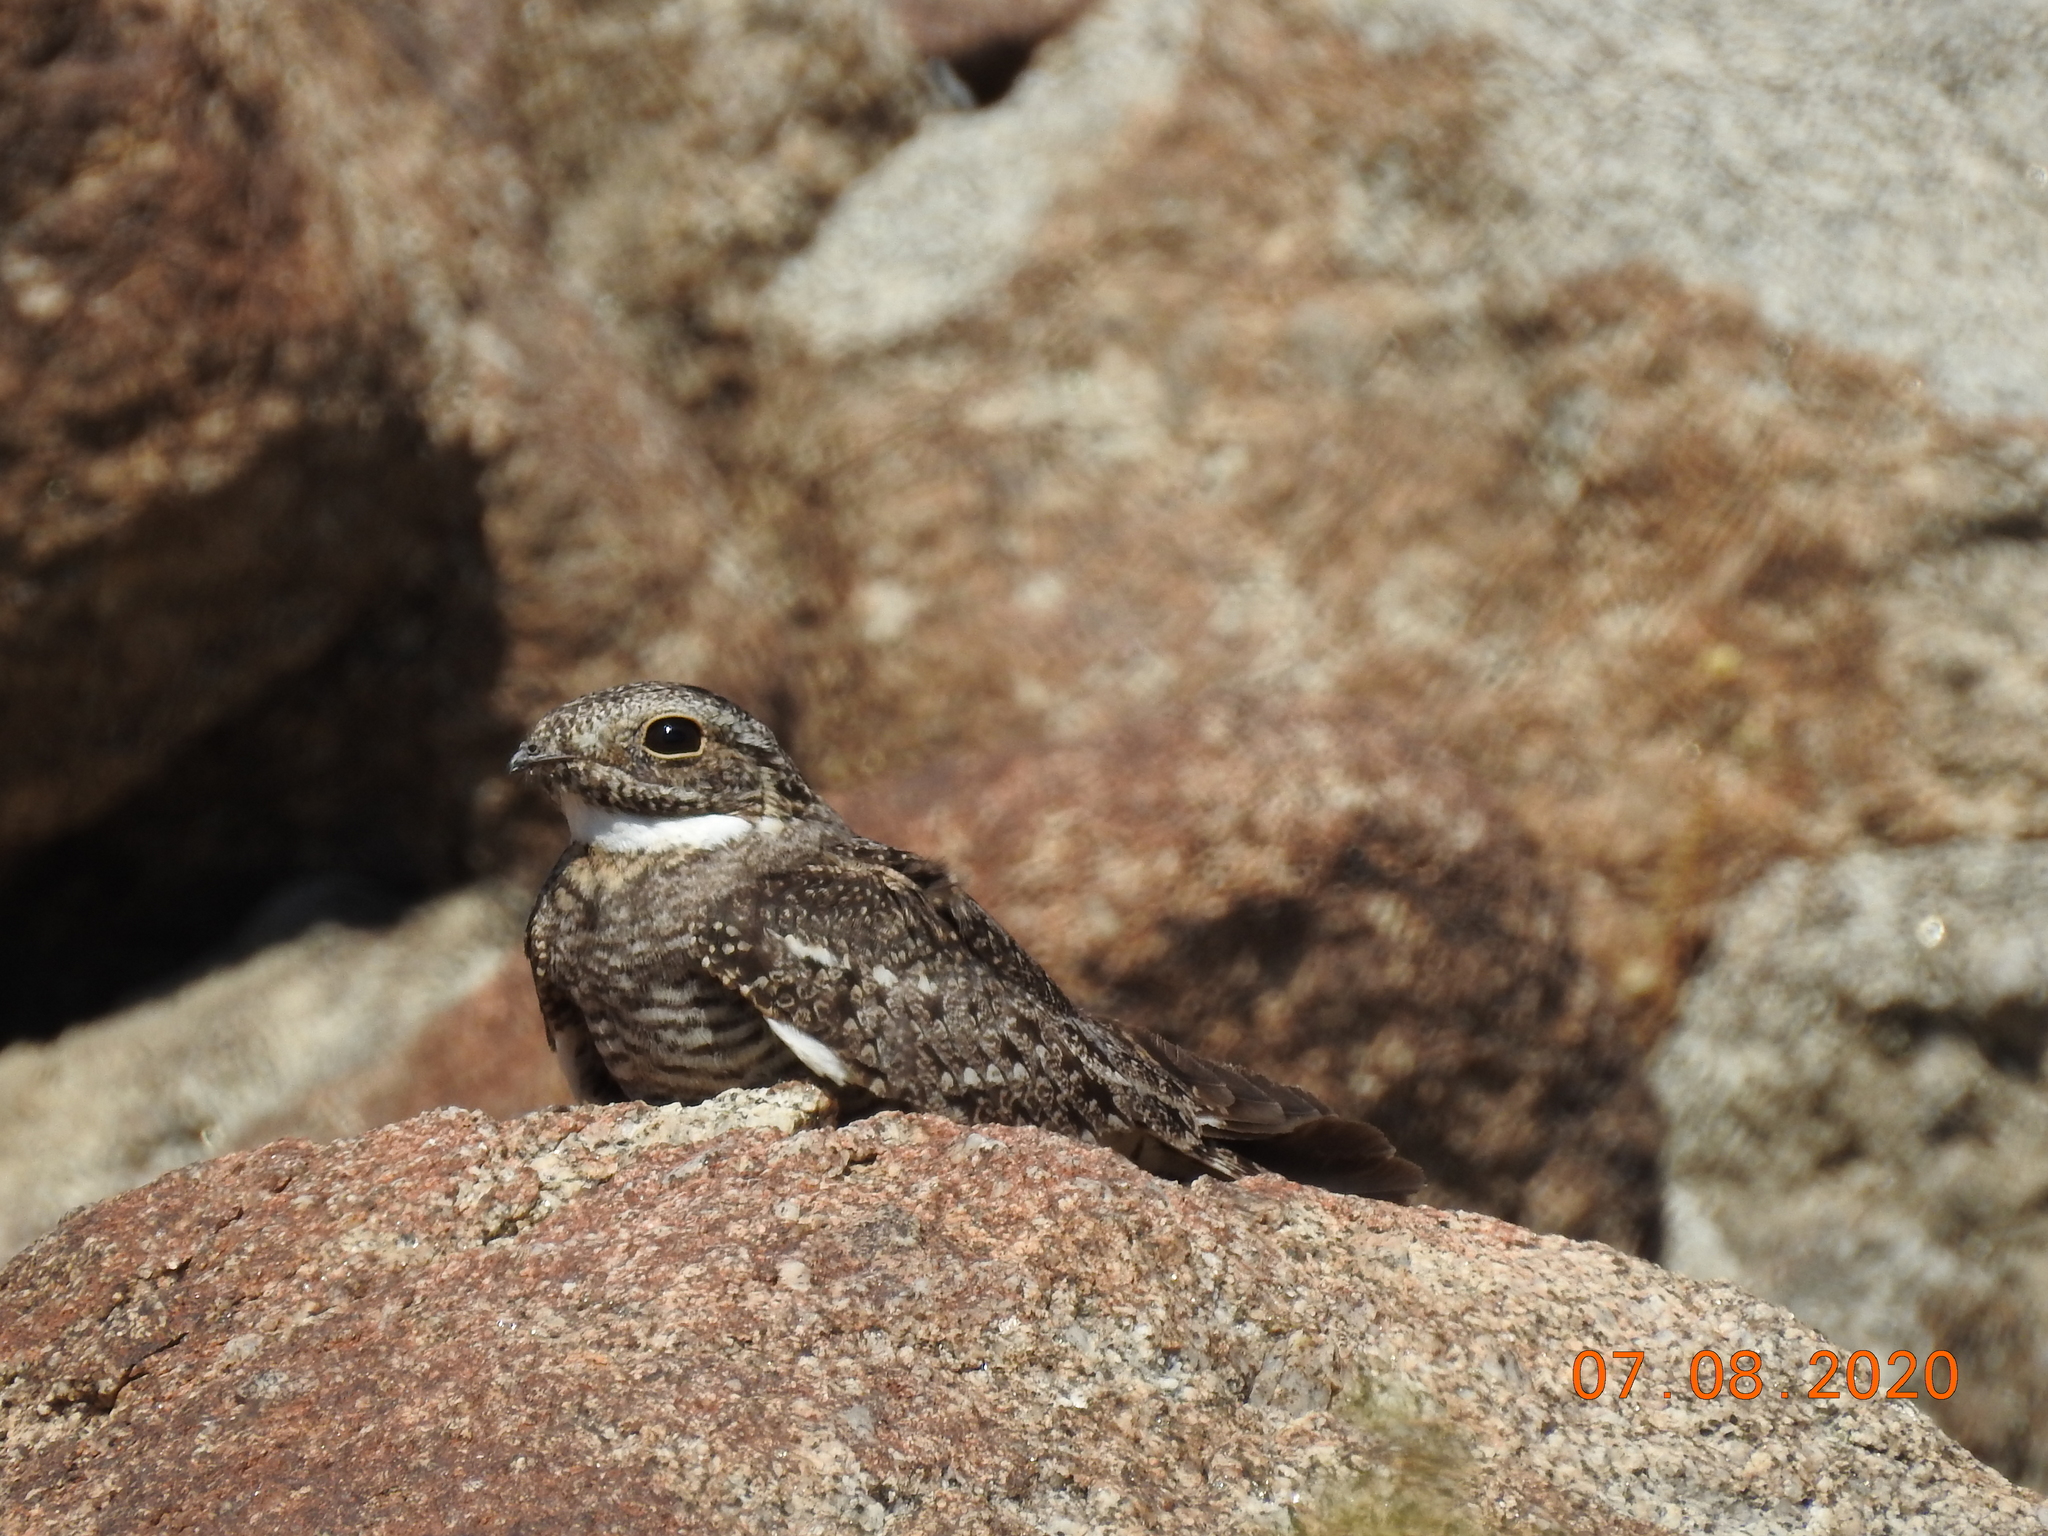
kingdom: Animalia
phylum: Chordata
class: Aves
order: Caprimulgiformes
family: Caprimulgidae
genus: Chordeiles
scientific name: Chordeiles acutipennis
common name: Lesser nighthawk
